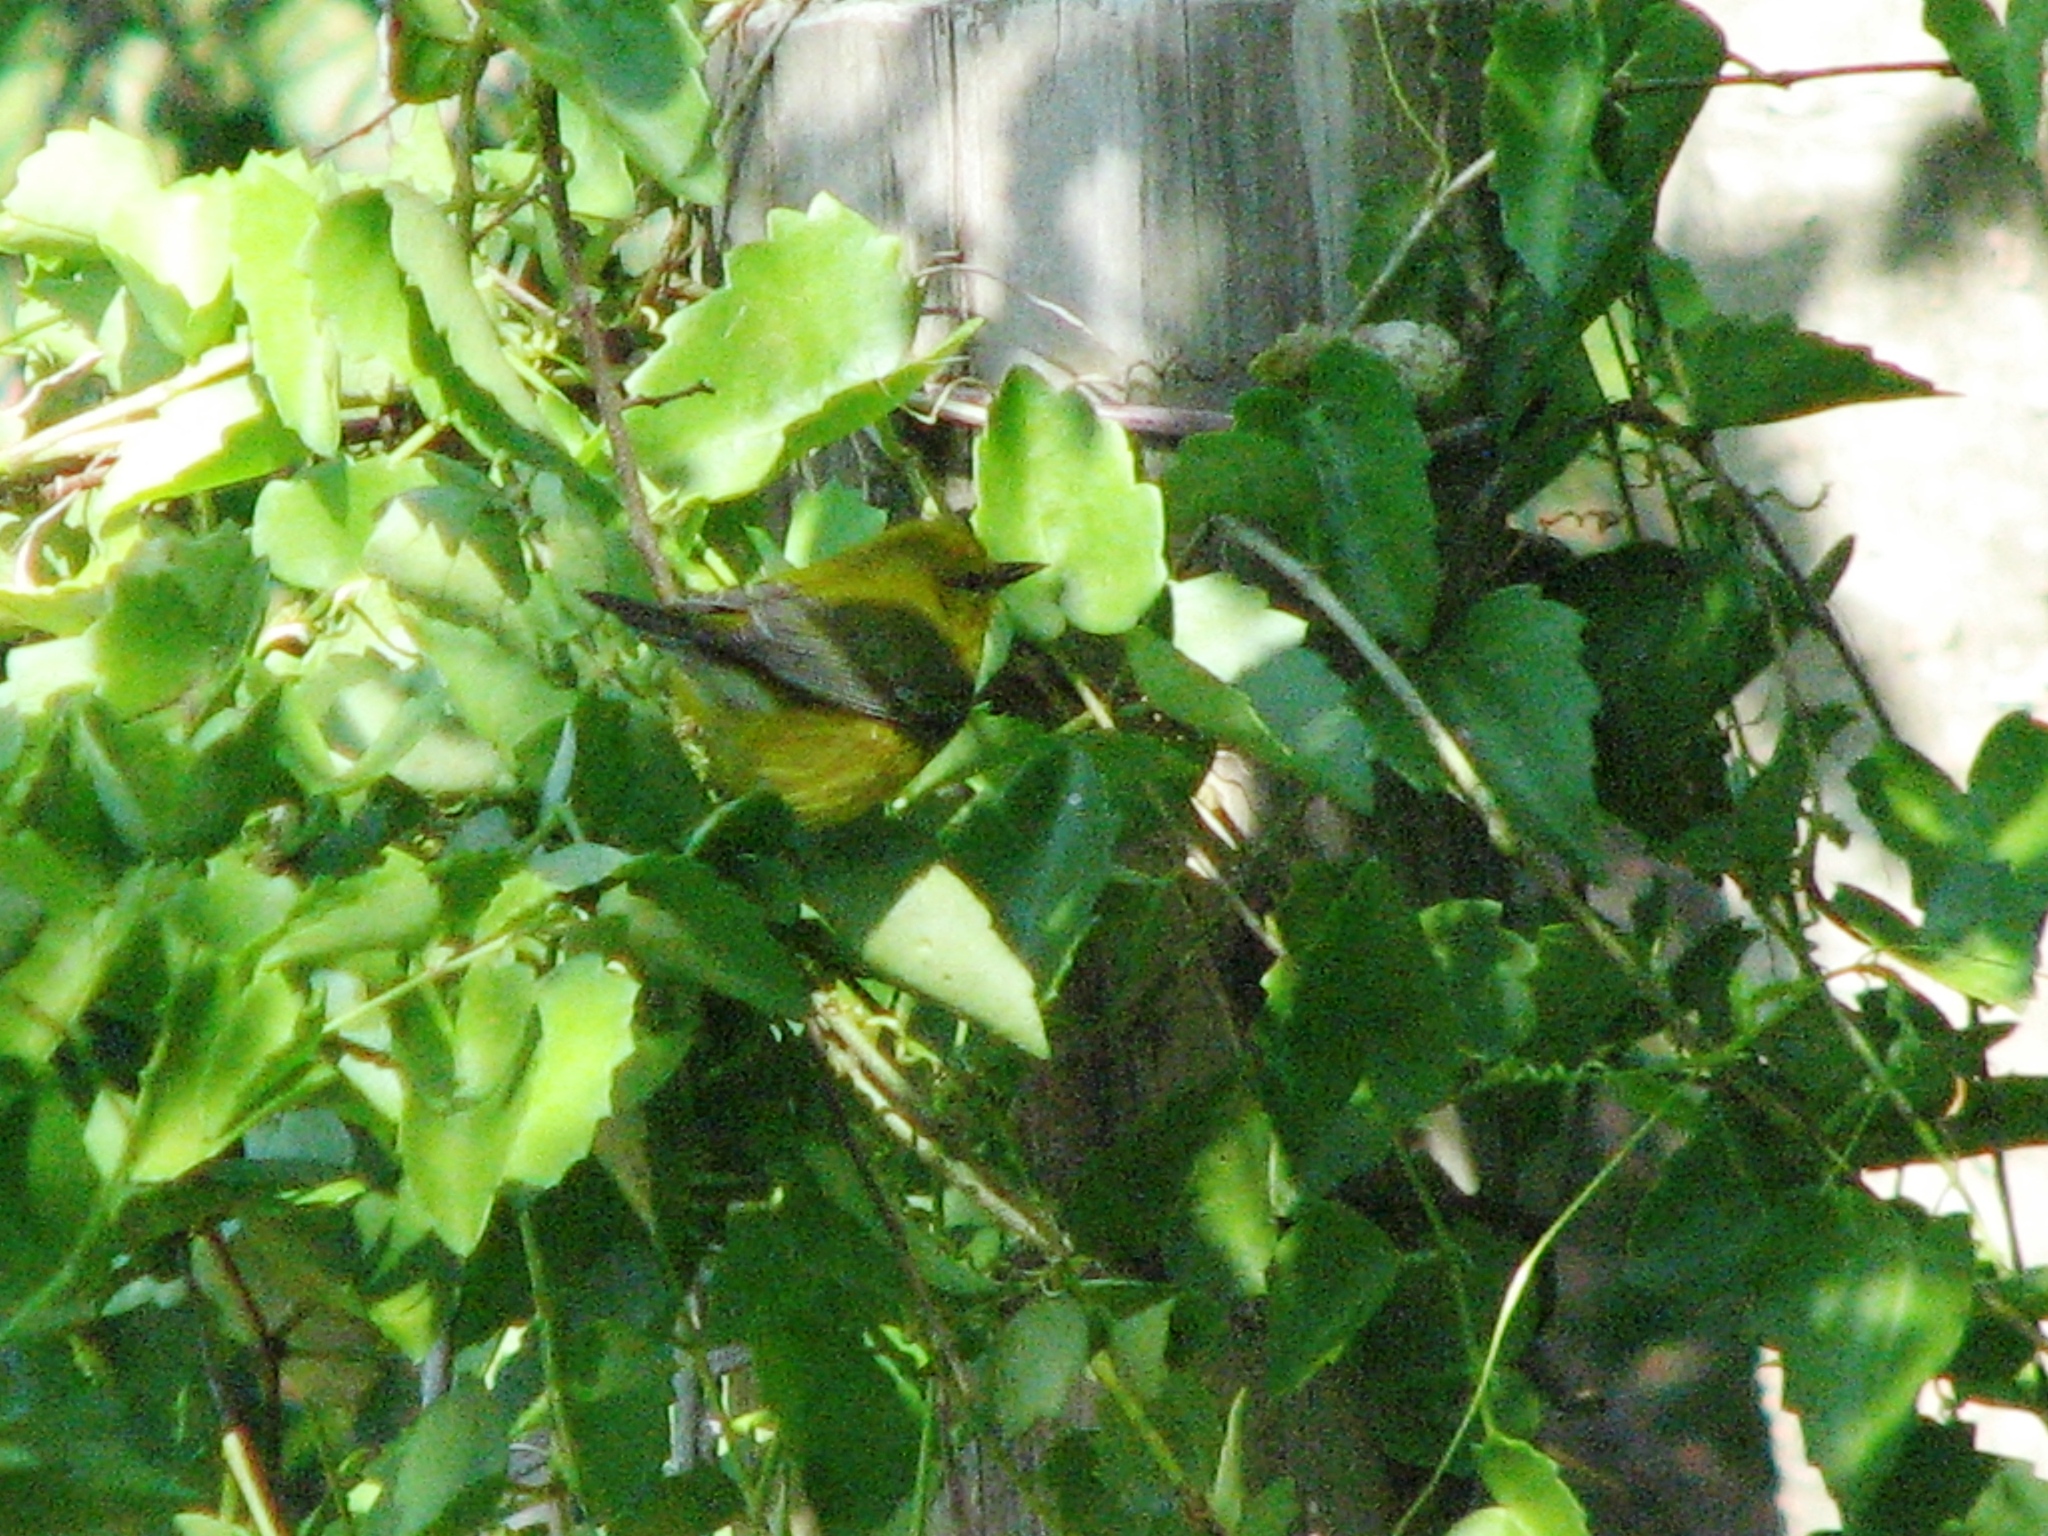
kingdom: Animalia
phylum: Chordata
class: Aves
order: Passeriformes
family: Parulidae
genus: Vermivora
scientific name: Vermivora cyanoptera
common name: Blue-winged warbler
